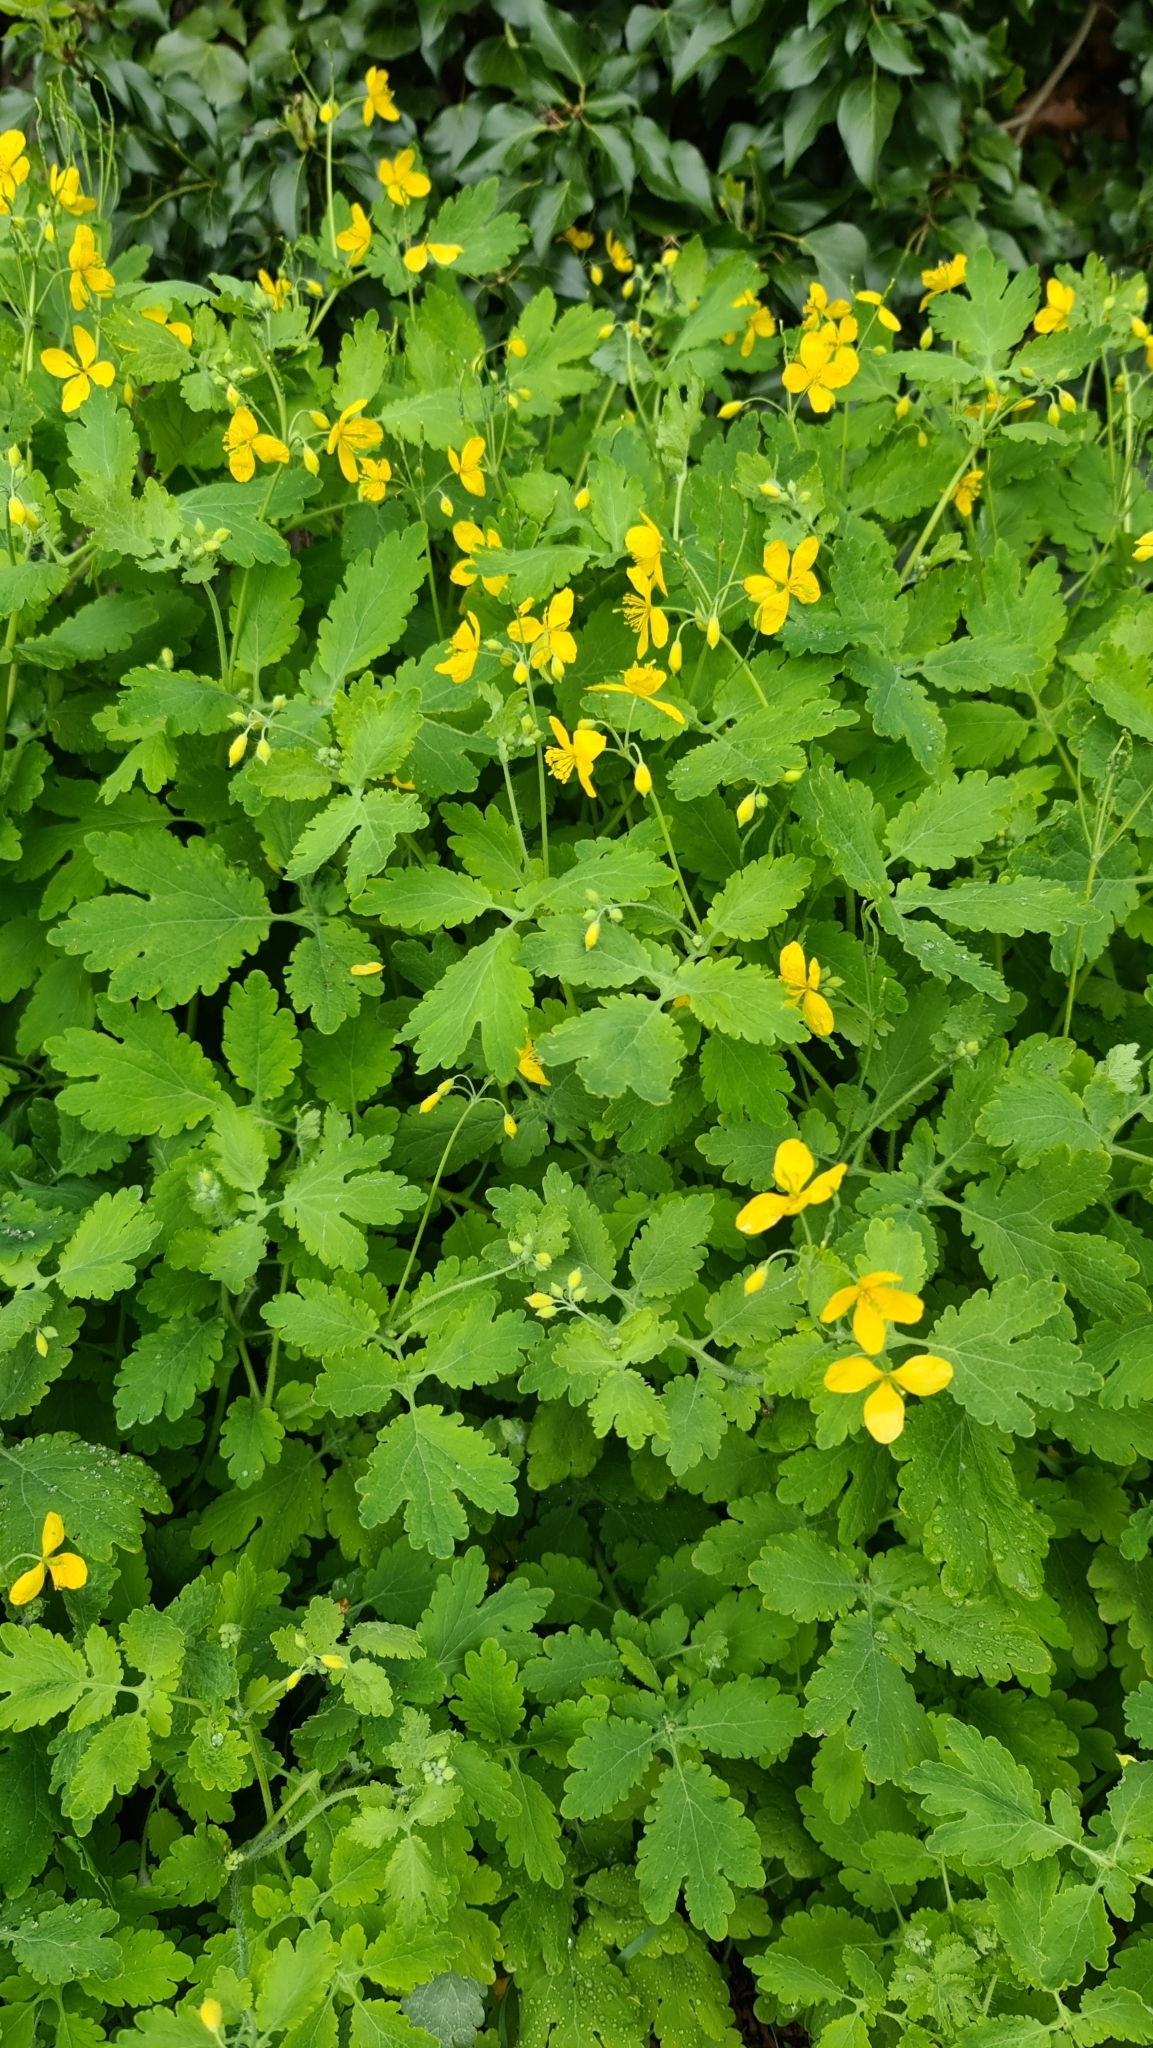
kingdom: Plantae
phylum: Tracheophyta
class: Magnoliopsida
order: Ranunculales
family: Papaveraceae
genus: Chelidonium
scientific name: Chelidonium majus
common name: Greater celandine
